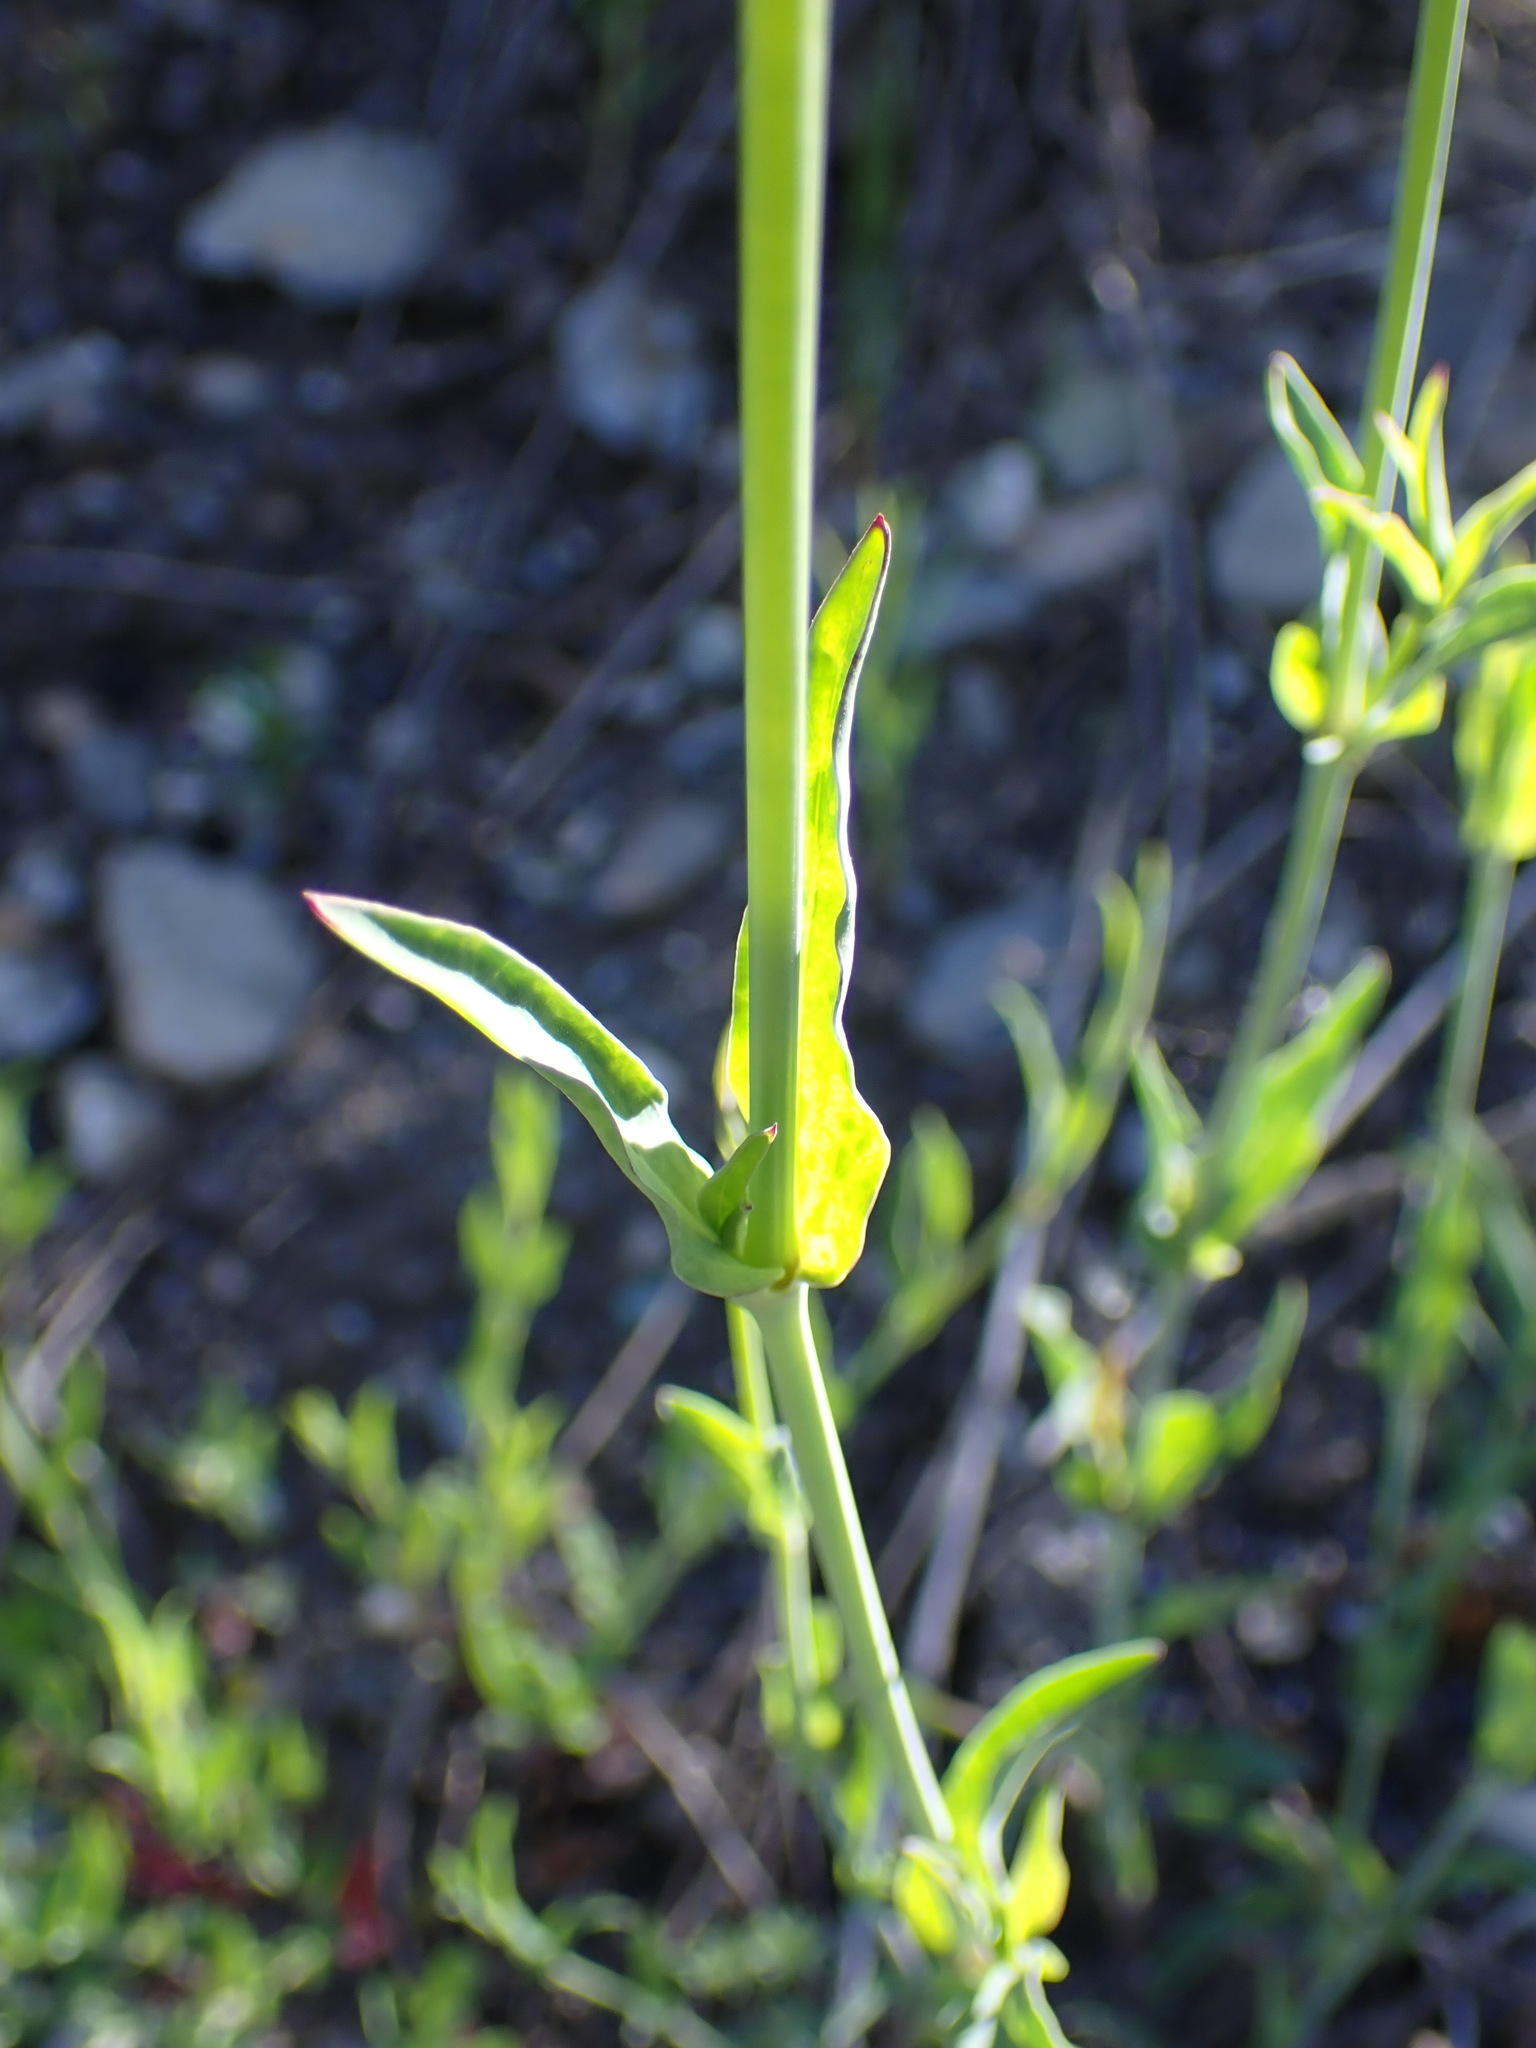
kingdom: Plantae
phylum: Tracheophyta
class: Magnoliopsida
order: Caryophyllales
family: Caryophyllaceae
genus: Silene
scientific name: Silene vulgaris
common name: Bladder campion
